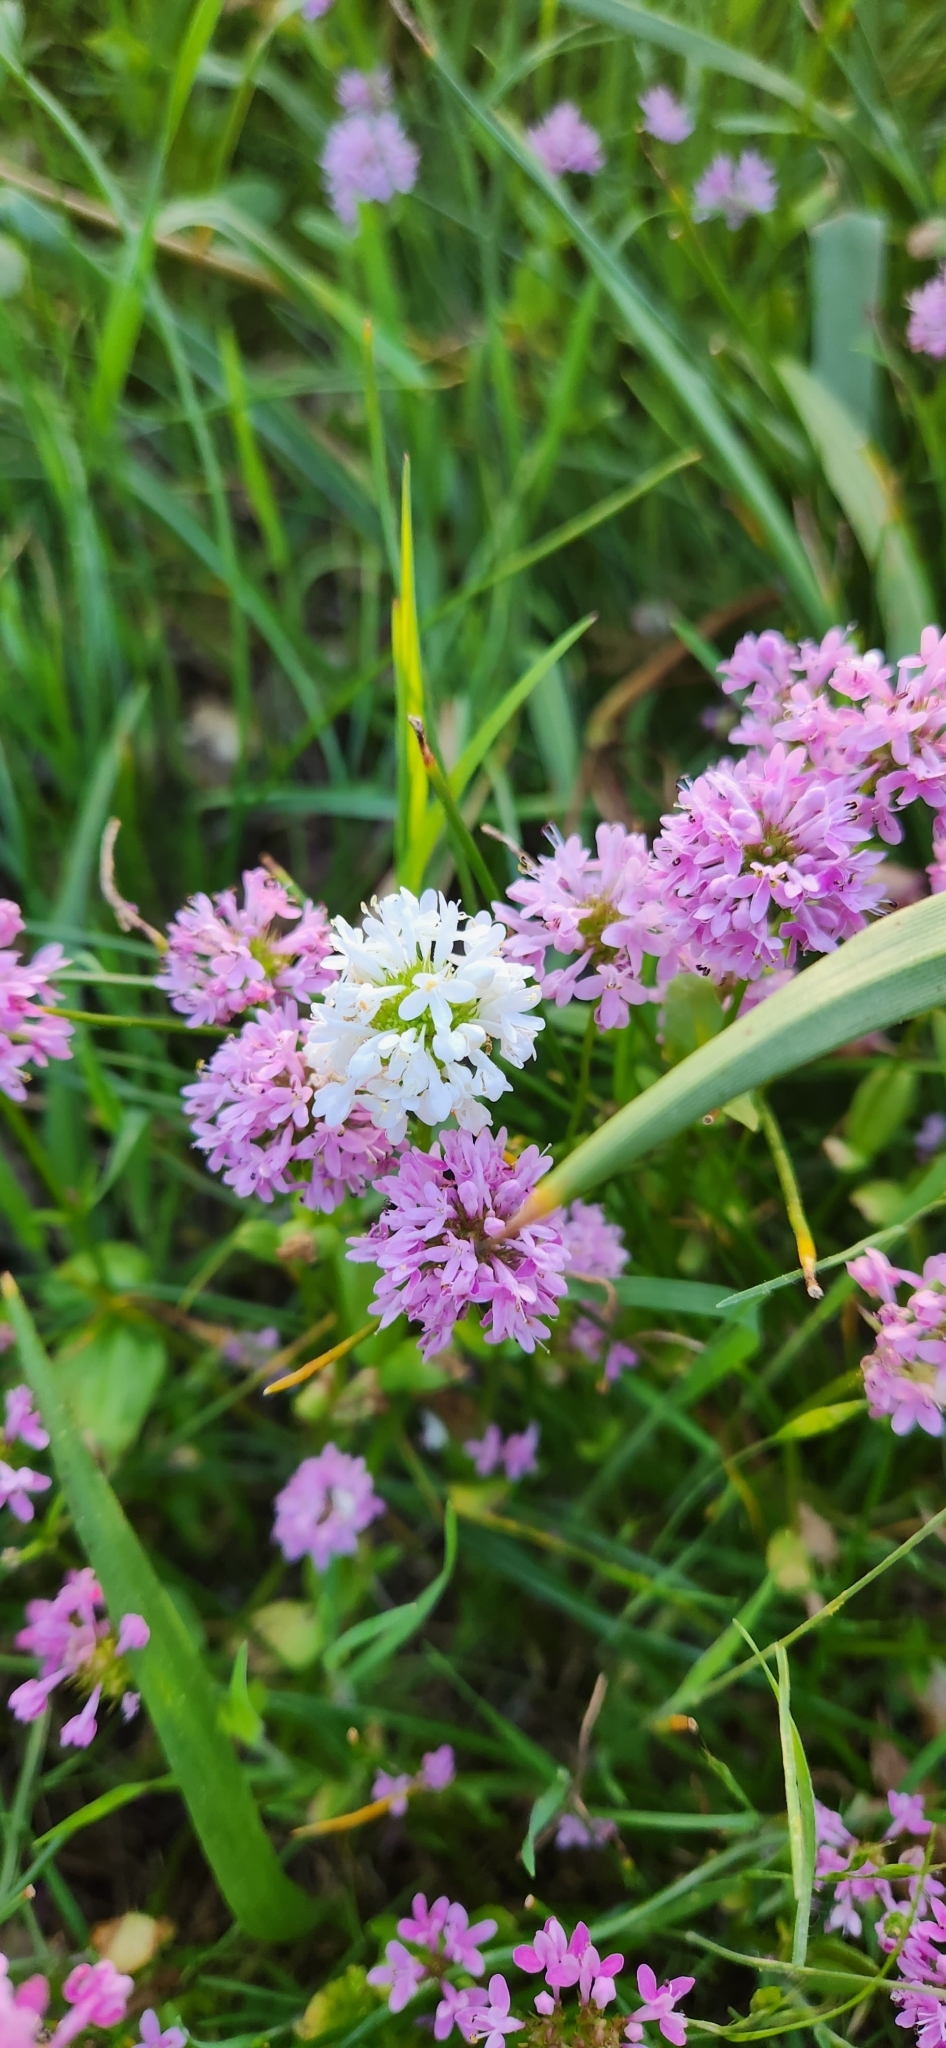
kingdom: Plantae
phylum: Tracheophyta
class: Magnoliopsida
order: Dipsacales
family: Caprifoliaceae
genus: Plectritis
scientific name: Plectritis congesta
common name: Pink plectritis
